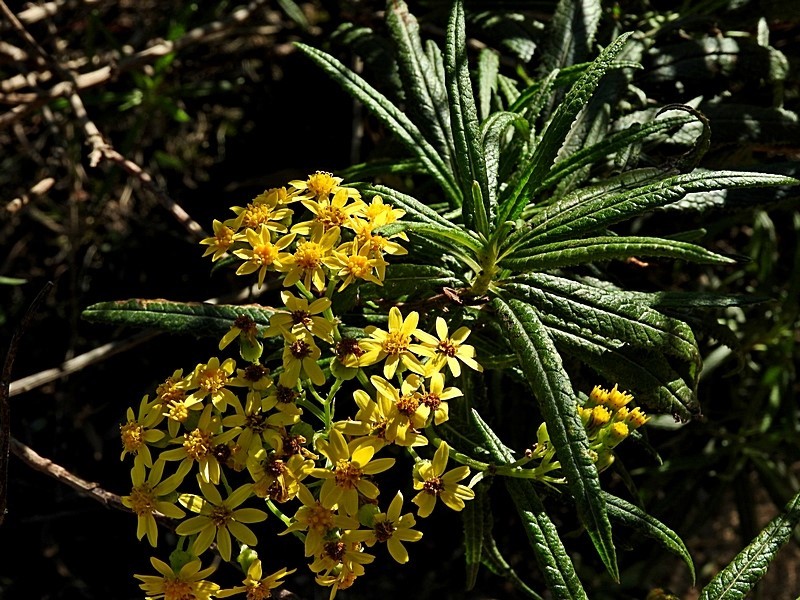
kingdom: Plantae
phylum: Tracheophyta
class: Magnoliopsida
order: Asterales
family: Asteraceae
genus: Senecio
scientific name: Senecio linearifolius
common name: Fireweed groundsel
